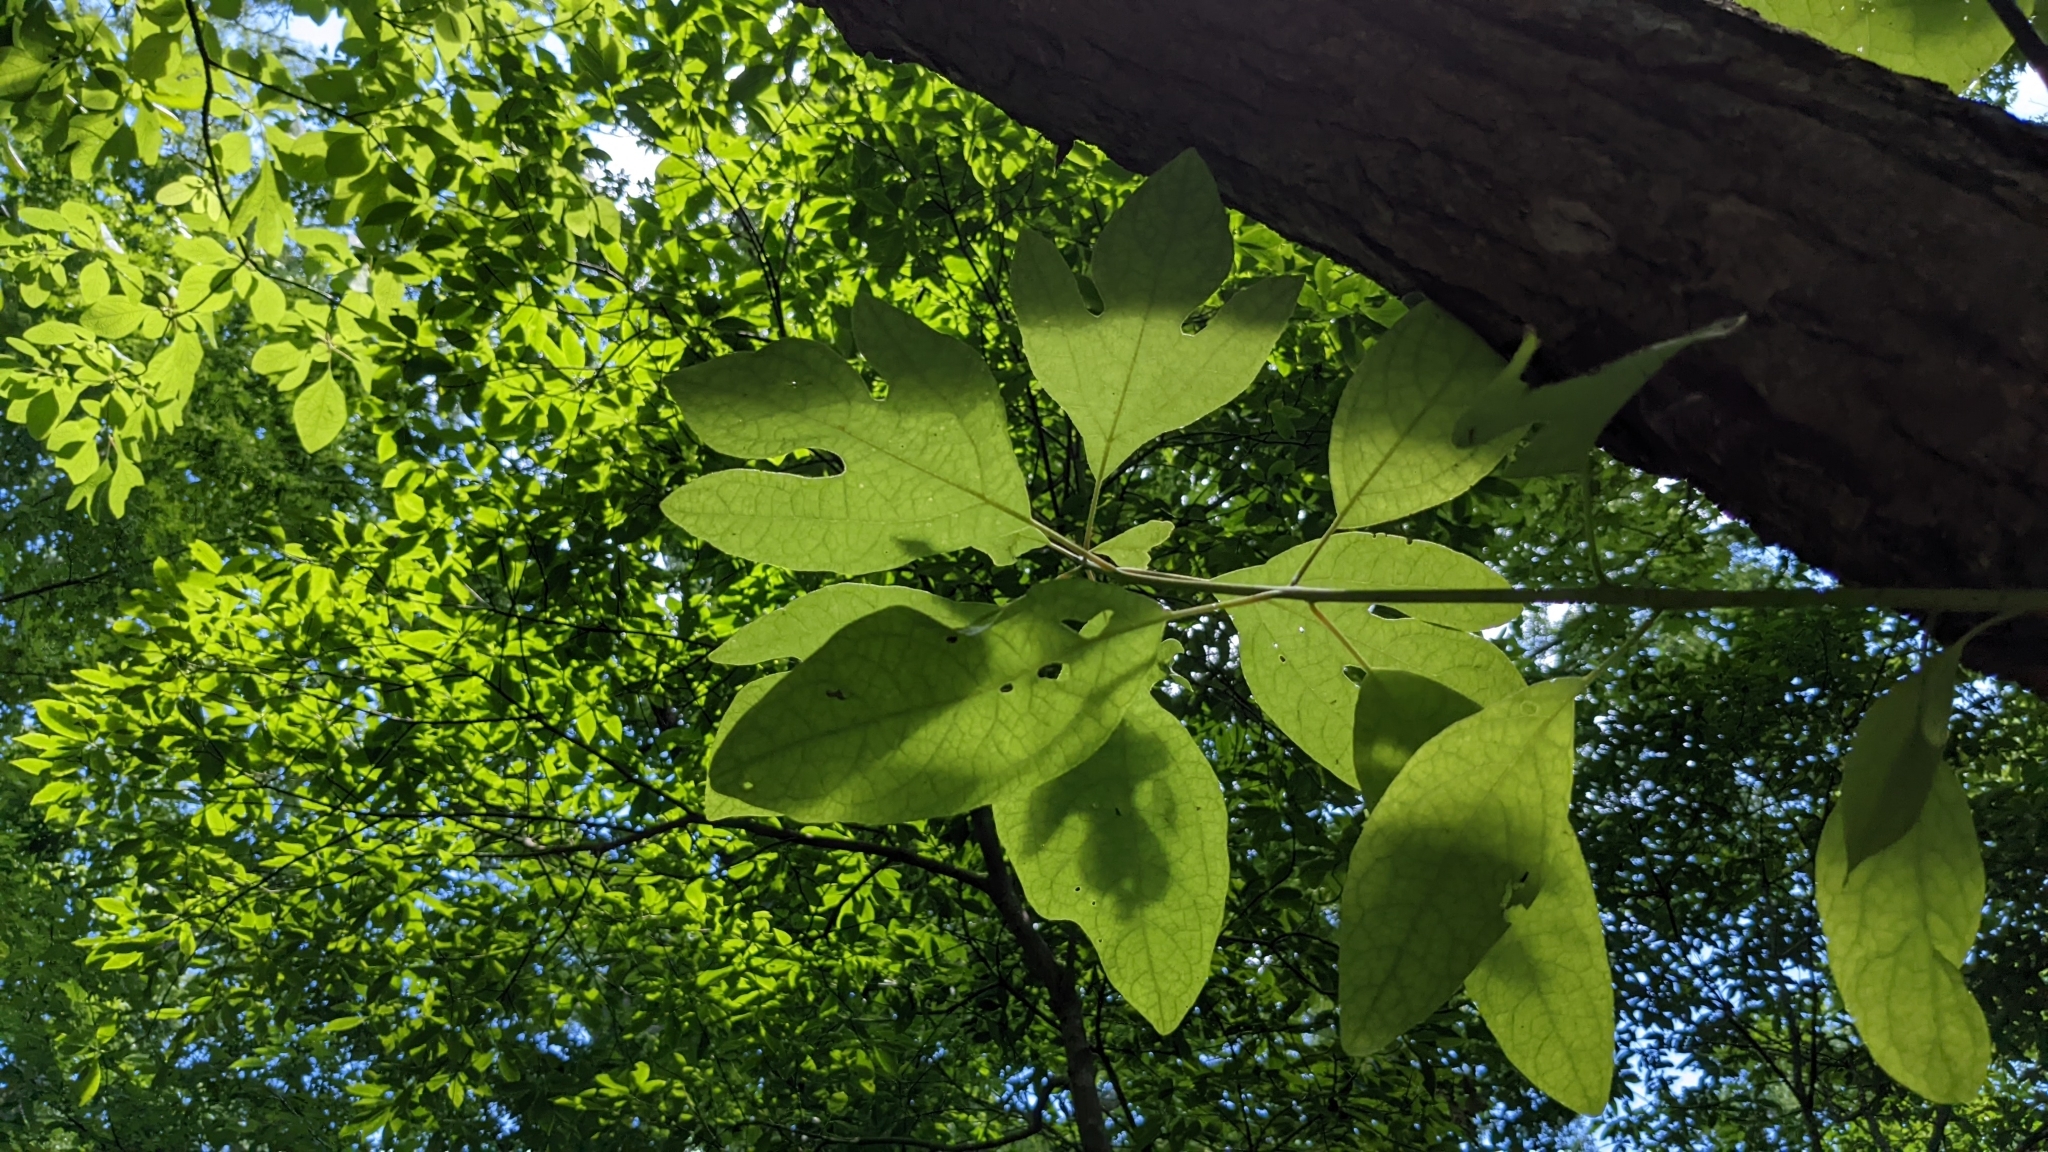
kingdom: Plantae
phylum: Tracheophyta
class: Magnoliopsida
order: Laurales
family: Lauraceae
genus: Sassafras
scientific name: Sassafras albidum
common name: Sassafras
